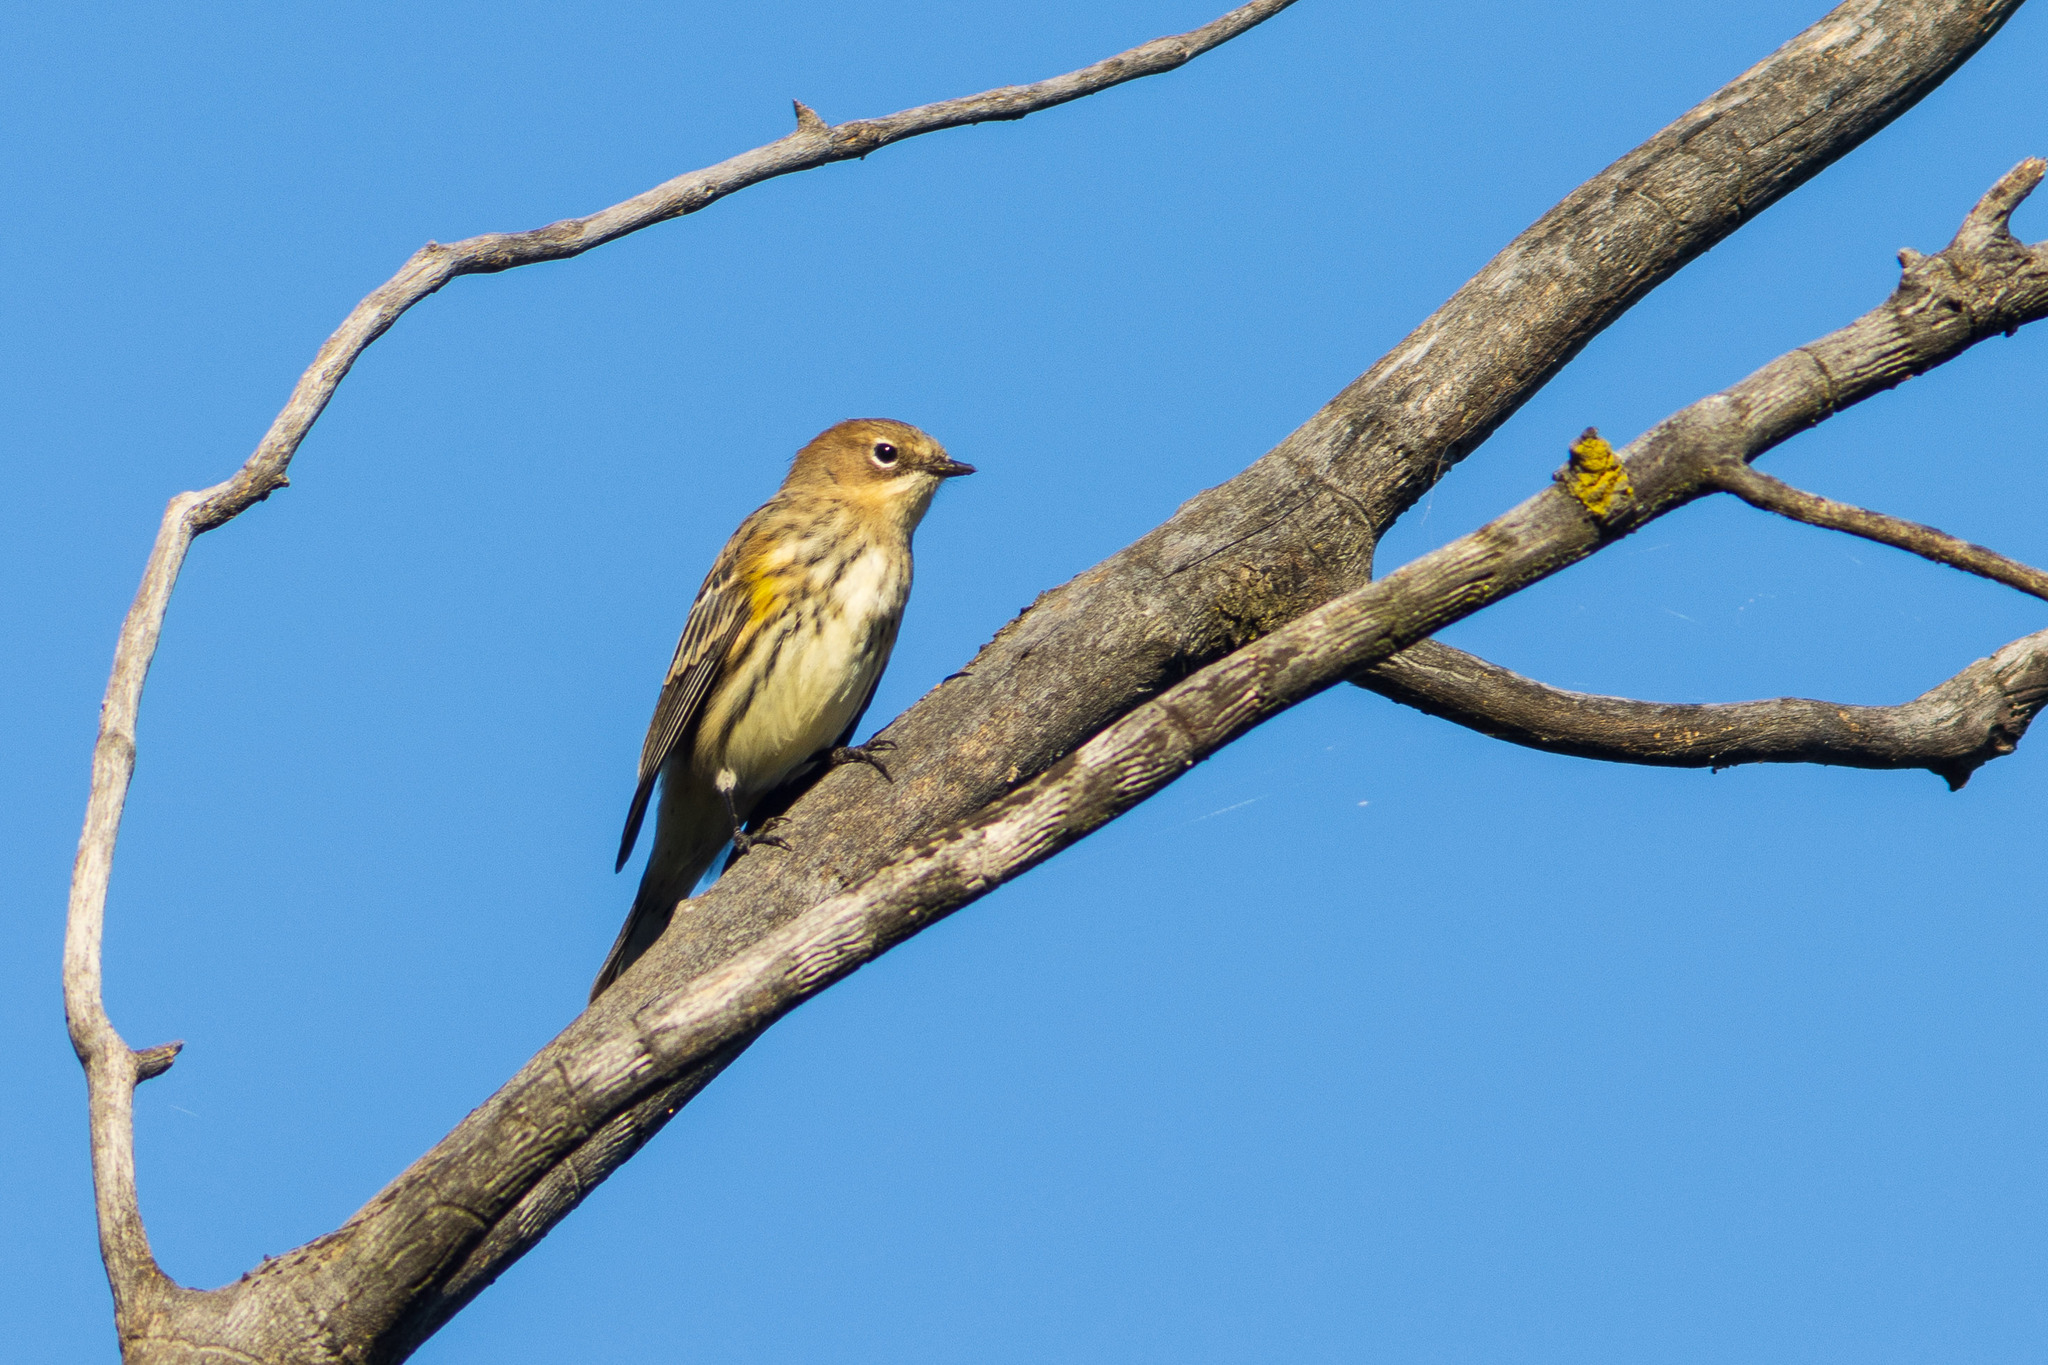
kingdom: Animalia
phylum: Chordata
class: Aves
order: Passeriformes
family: Parulidae
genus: Setophaga
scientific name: Setophaga coronata
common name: Myrtle warbler
